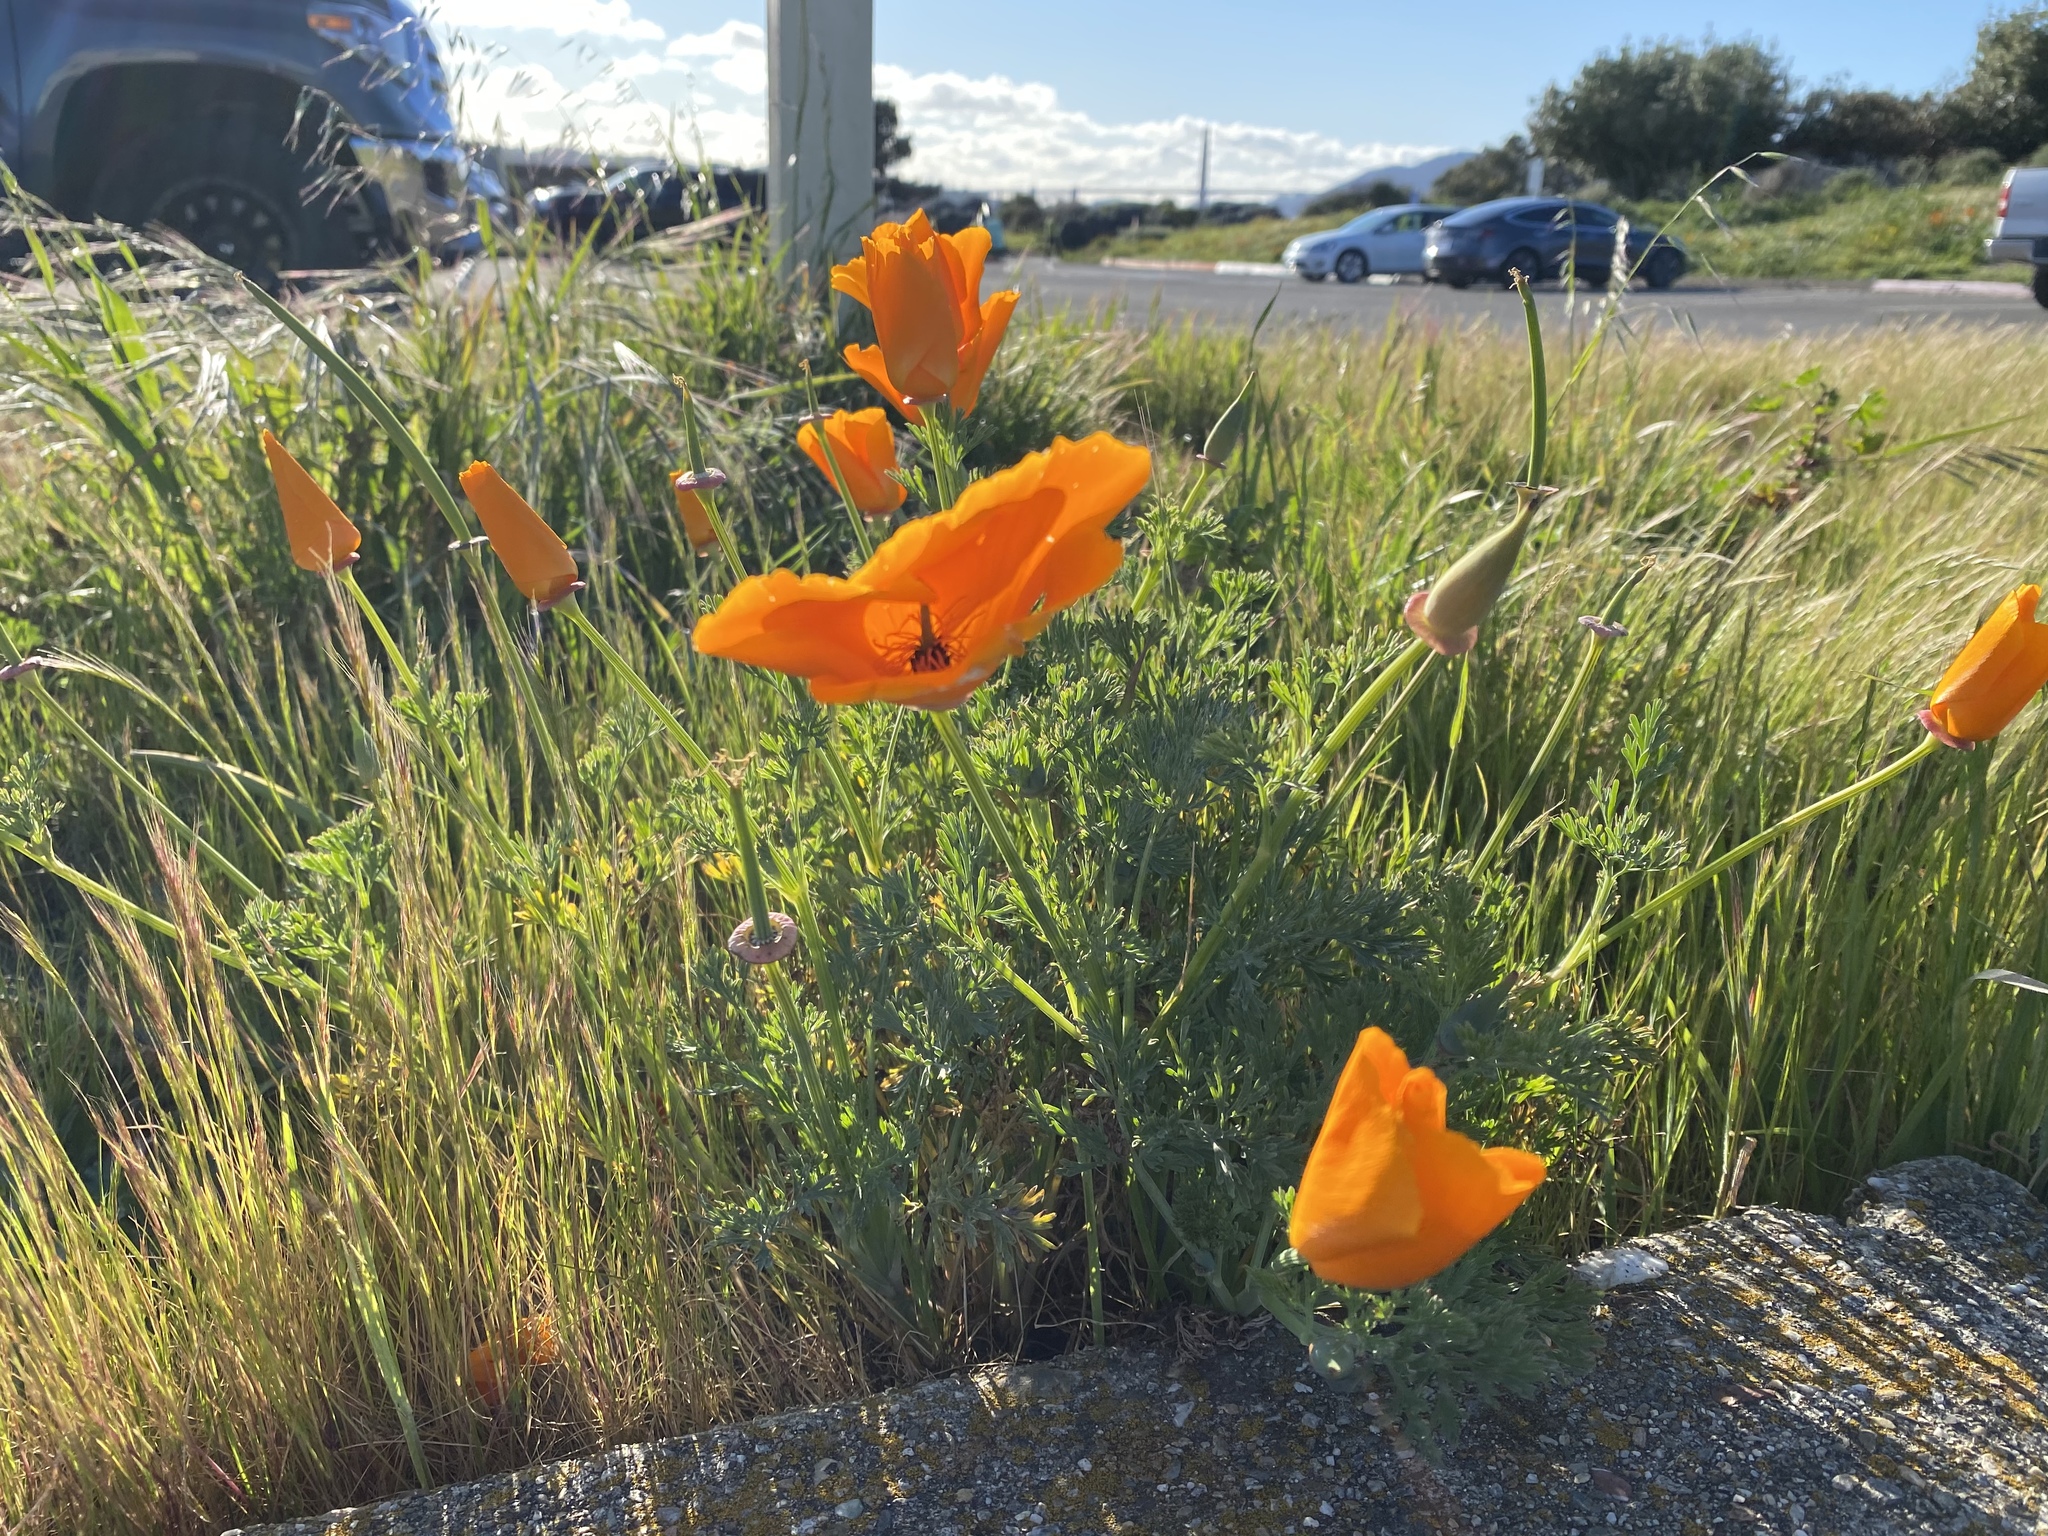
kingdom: Plantae
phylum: Tracheophyta
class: Magnoliopsida
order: Ranunculales
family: Papaveraceae
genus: Eschscholzia
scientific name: Eschscholzia californica
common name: California poppy
